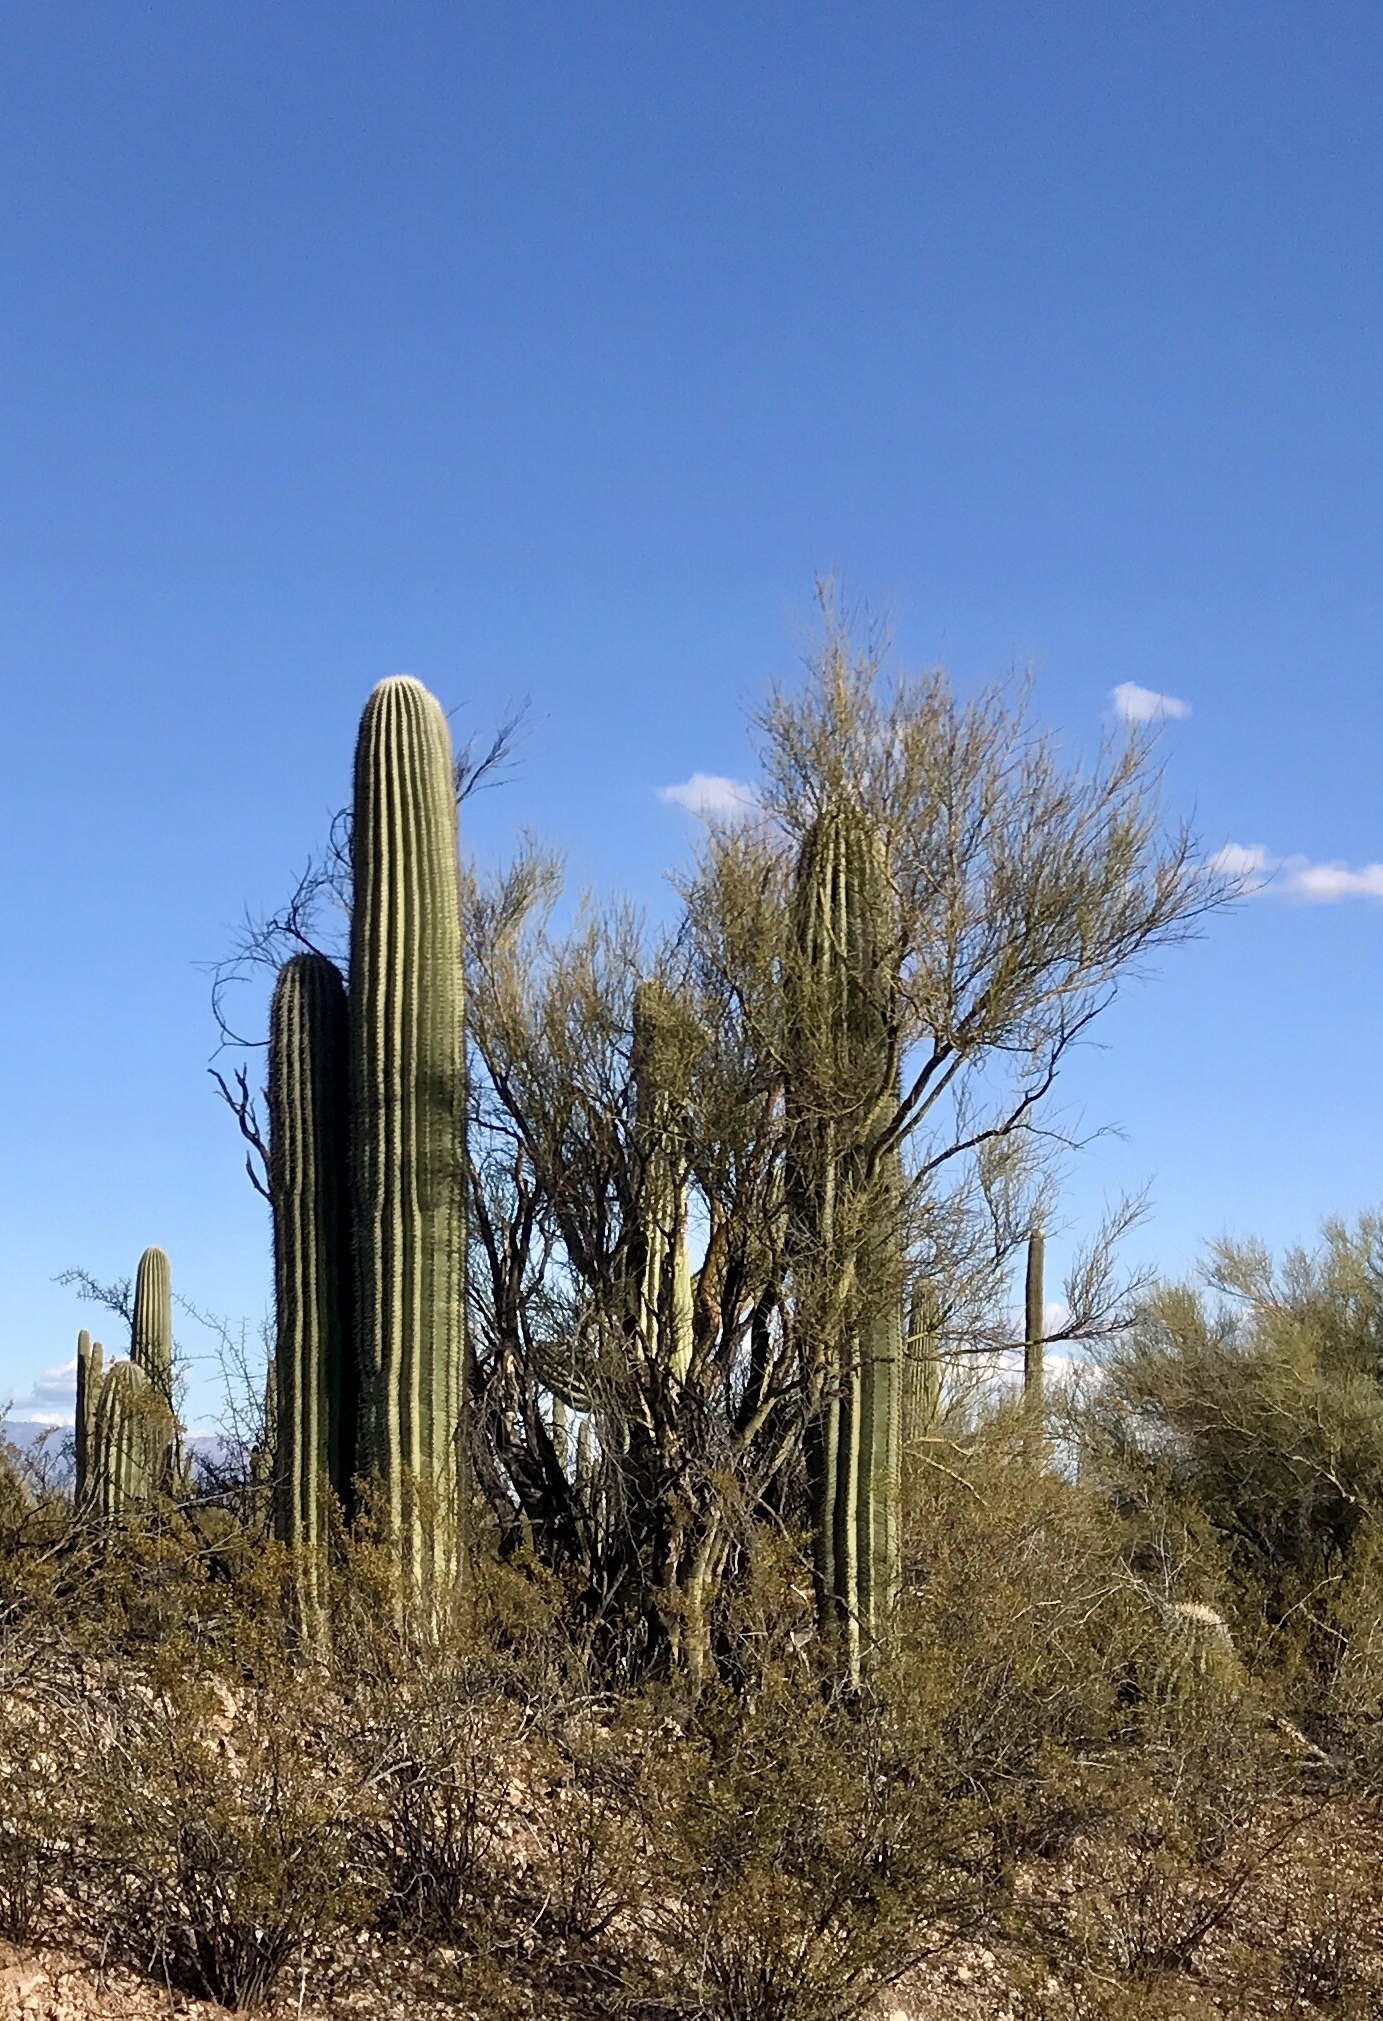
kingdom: Plantae
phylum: Tracheophyta
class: Magnoliopsida
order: Caryophyllales
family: Cactaceae
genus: Carnegiea
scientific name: Carnegiea gigantea
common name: Saguaro
